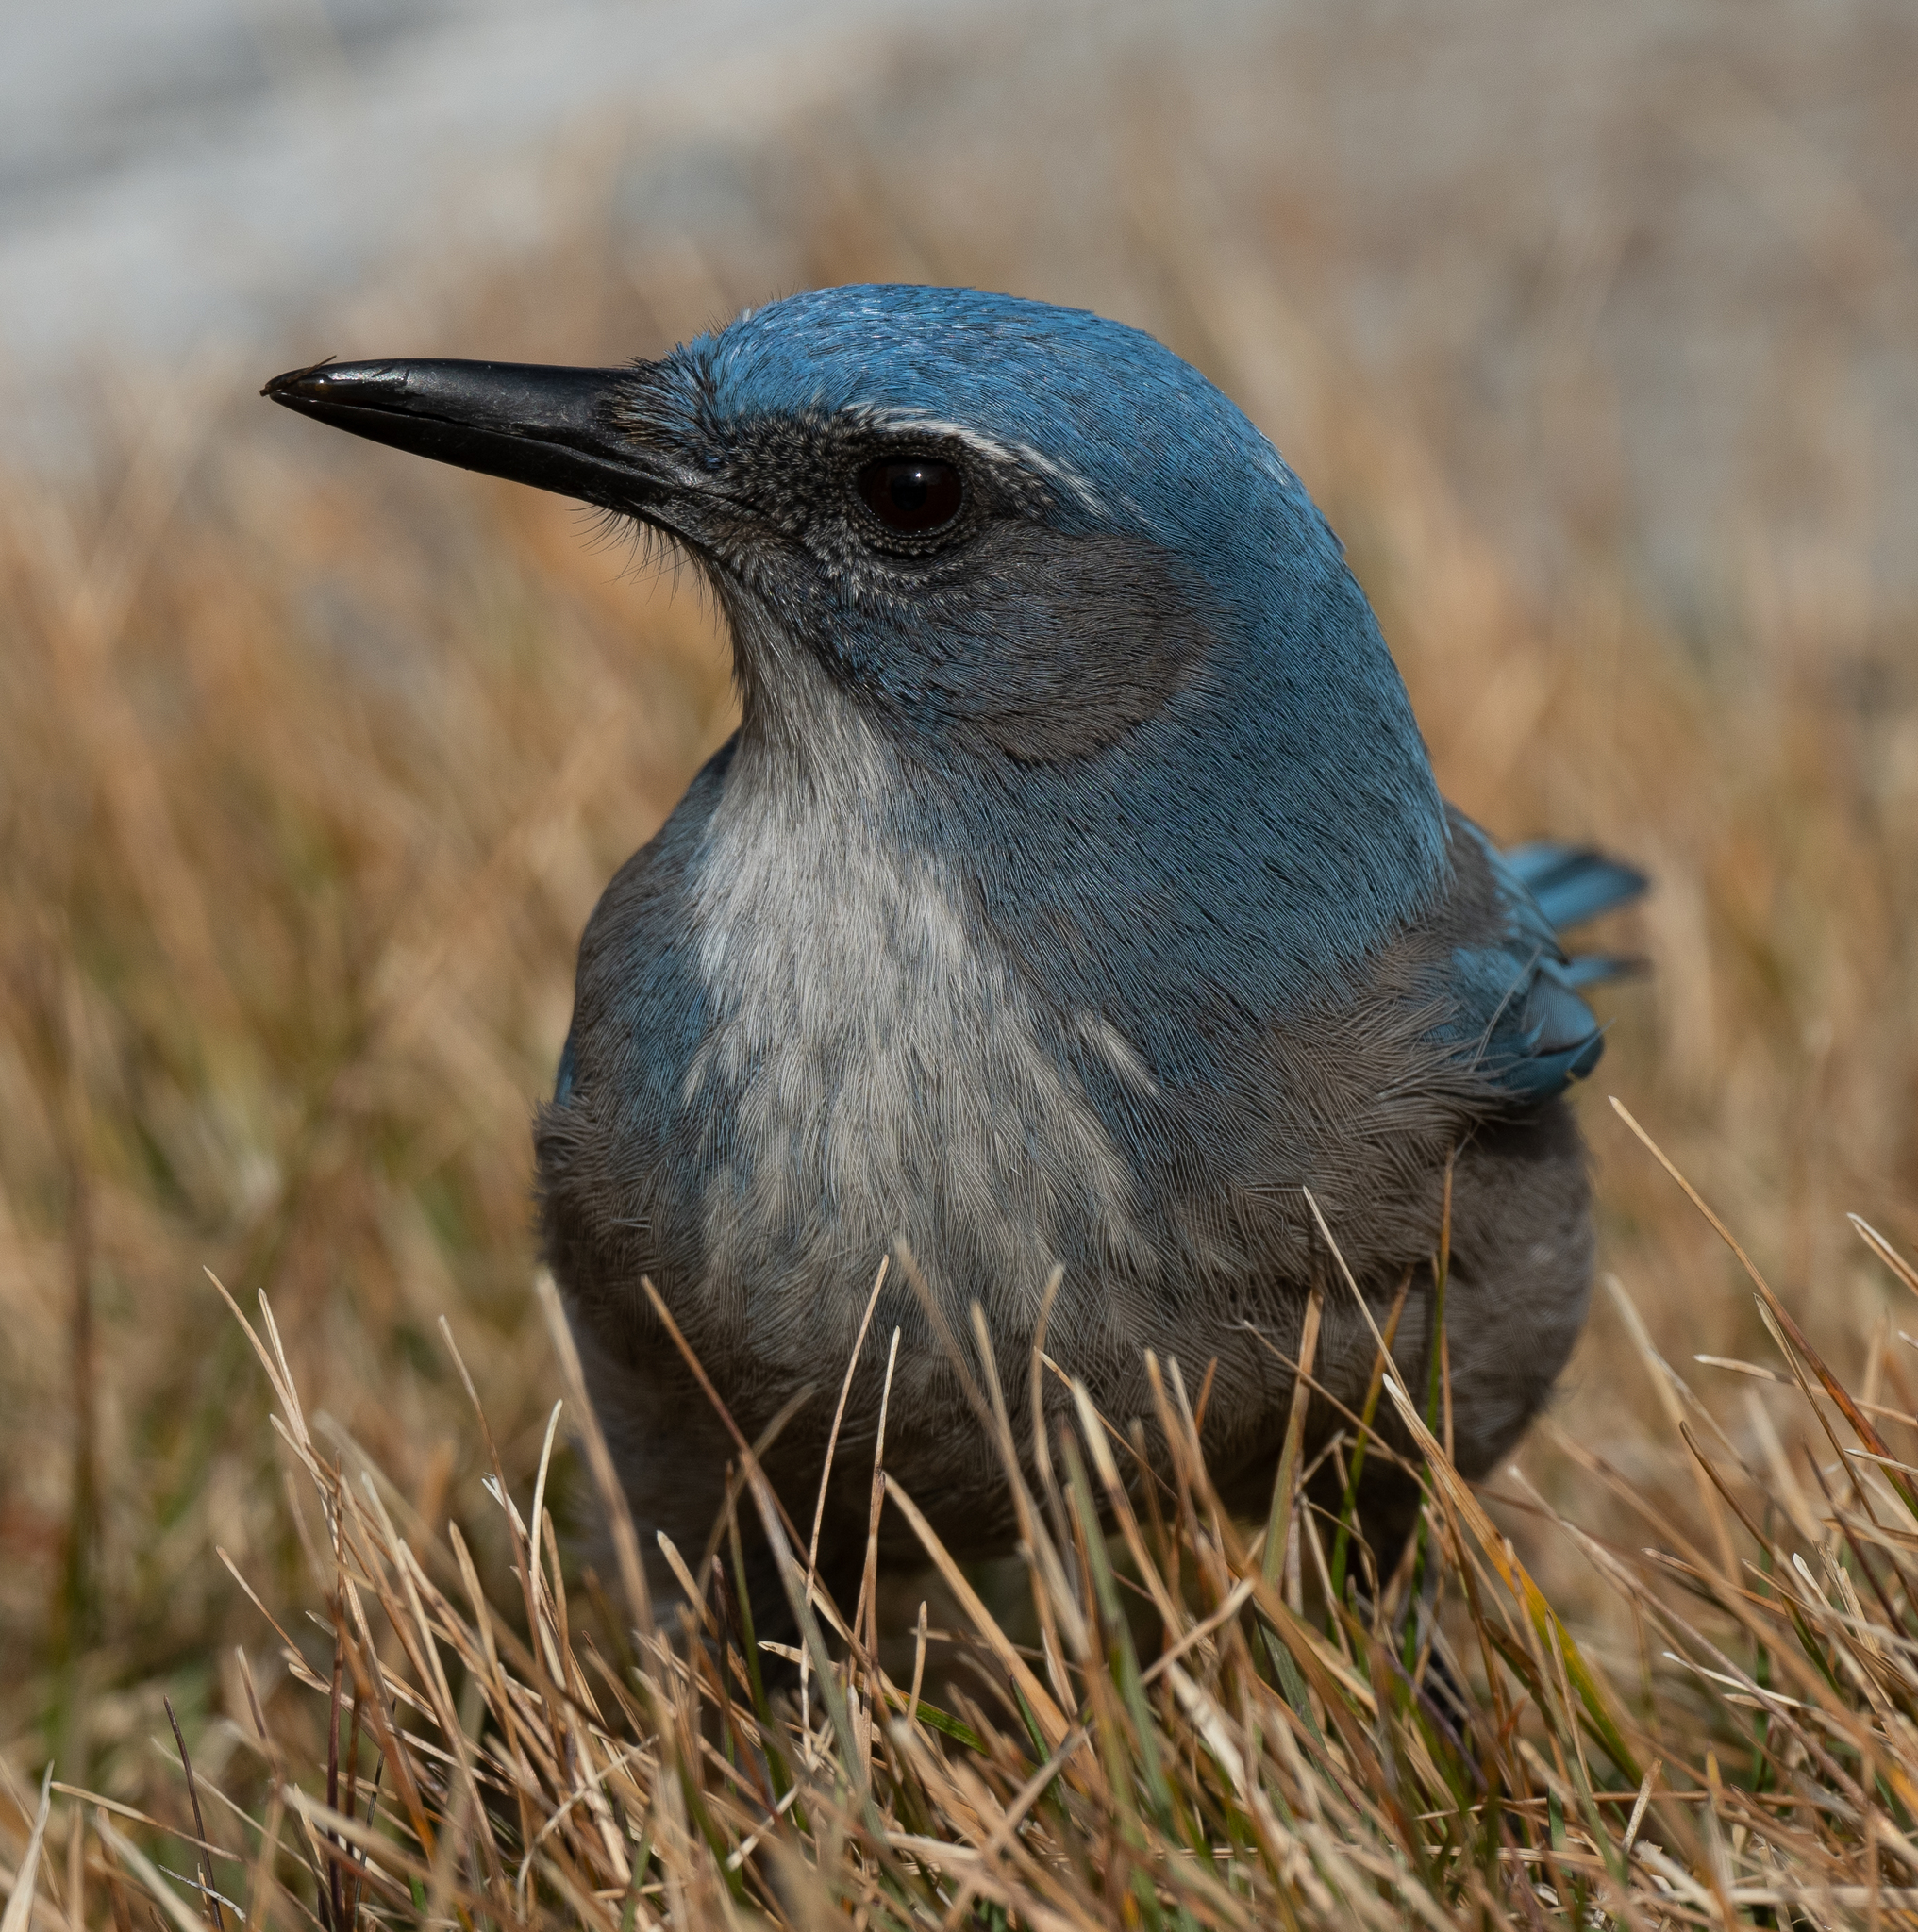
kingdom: Animalia
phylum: Chordata
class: Aves
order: Passeriformes
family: Corvidae
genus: Aphelocoma
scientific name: Aphelocoma woodhouseii
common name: Woodhouse's scrub-jay
